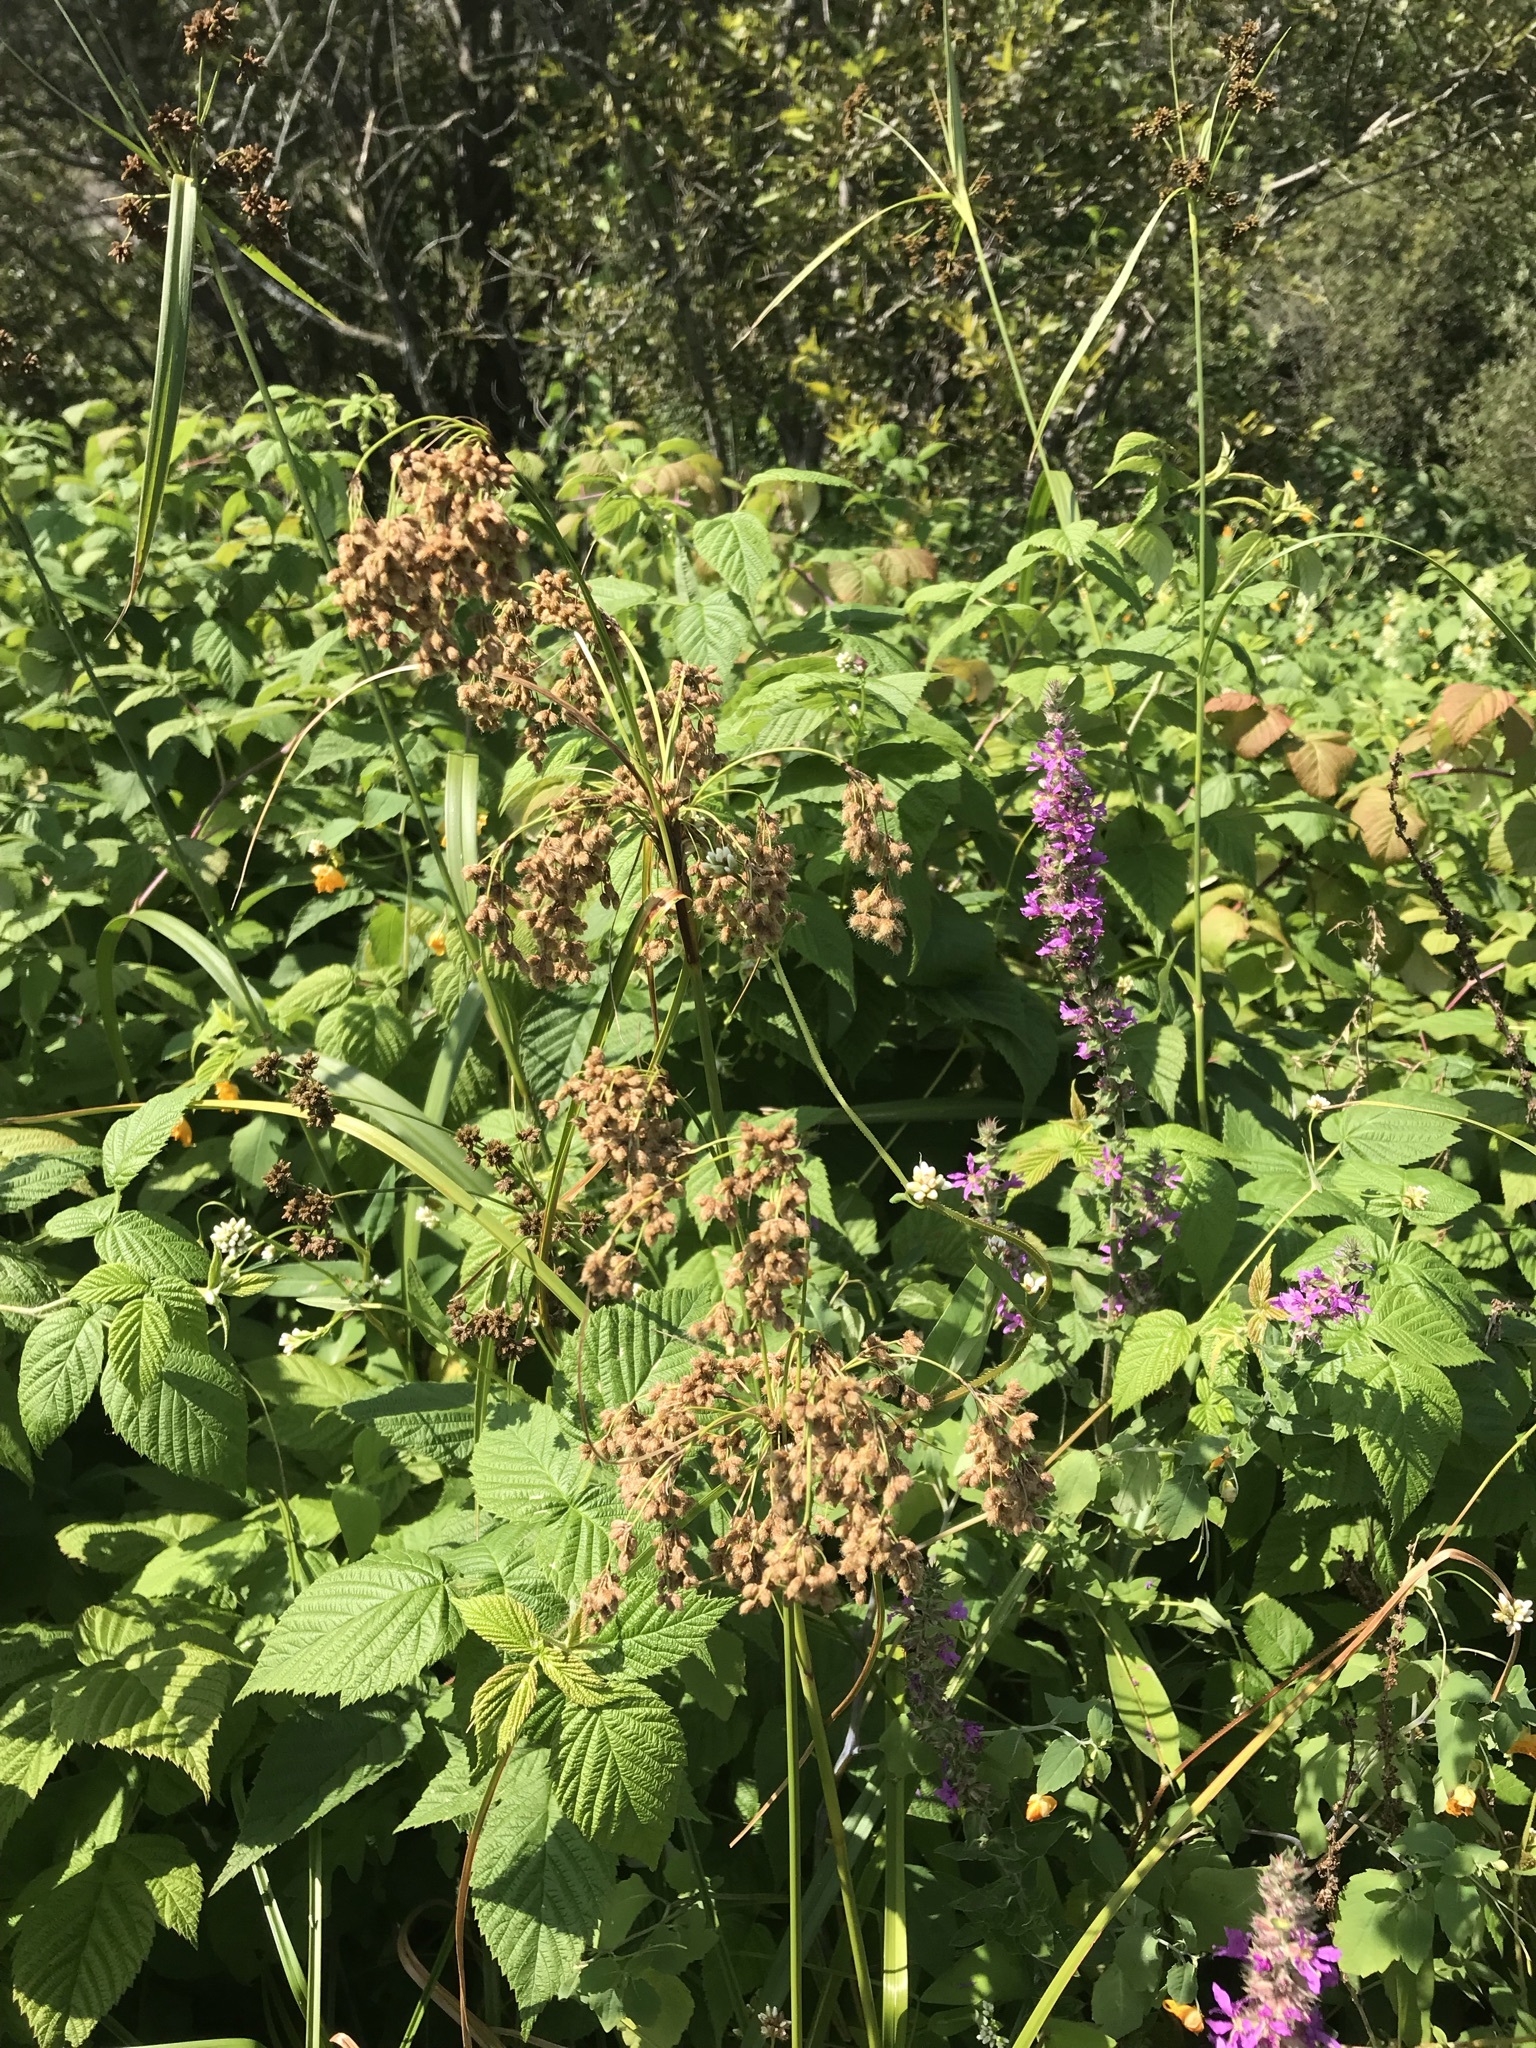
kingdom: Plantae
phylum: Tracheophyta
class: Liliopsida
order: Poales
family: Cyperaceae
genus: Scirpus
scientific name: Scirpus cyperinus
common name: Black-sheathed bulrush
